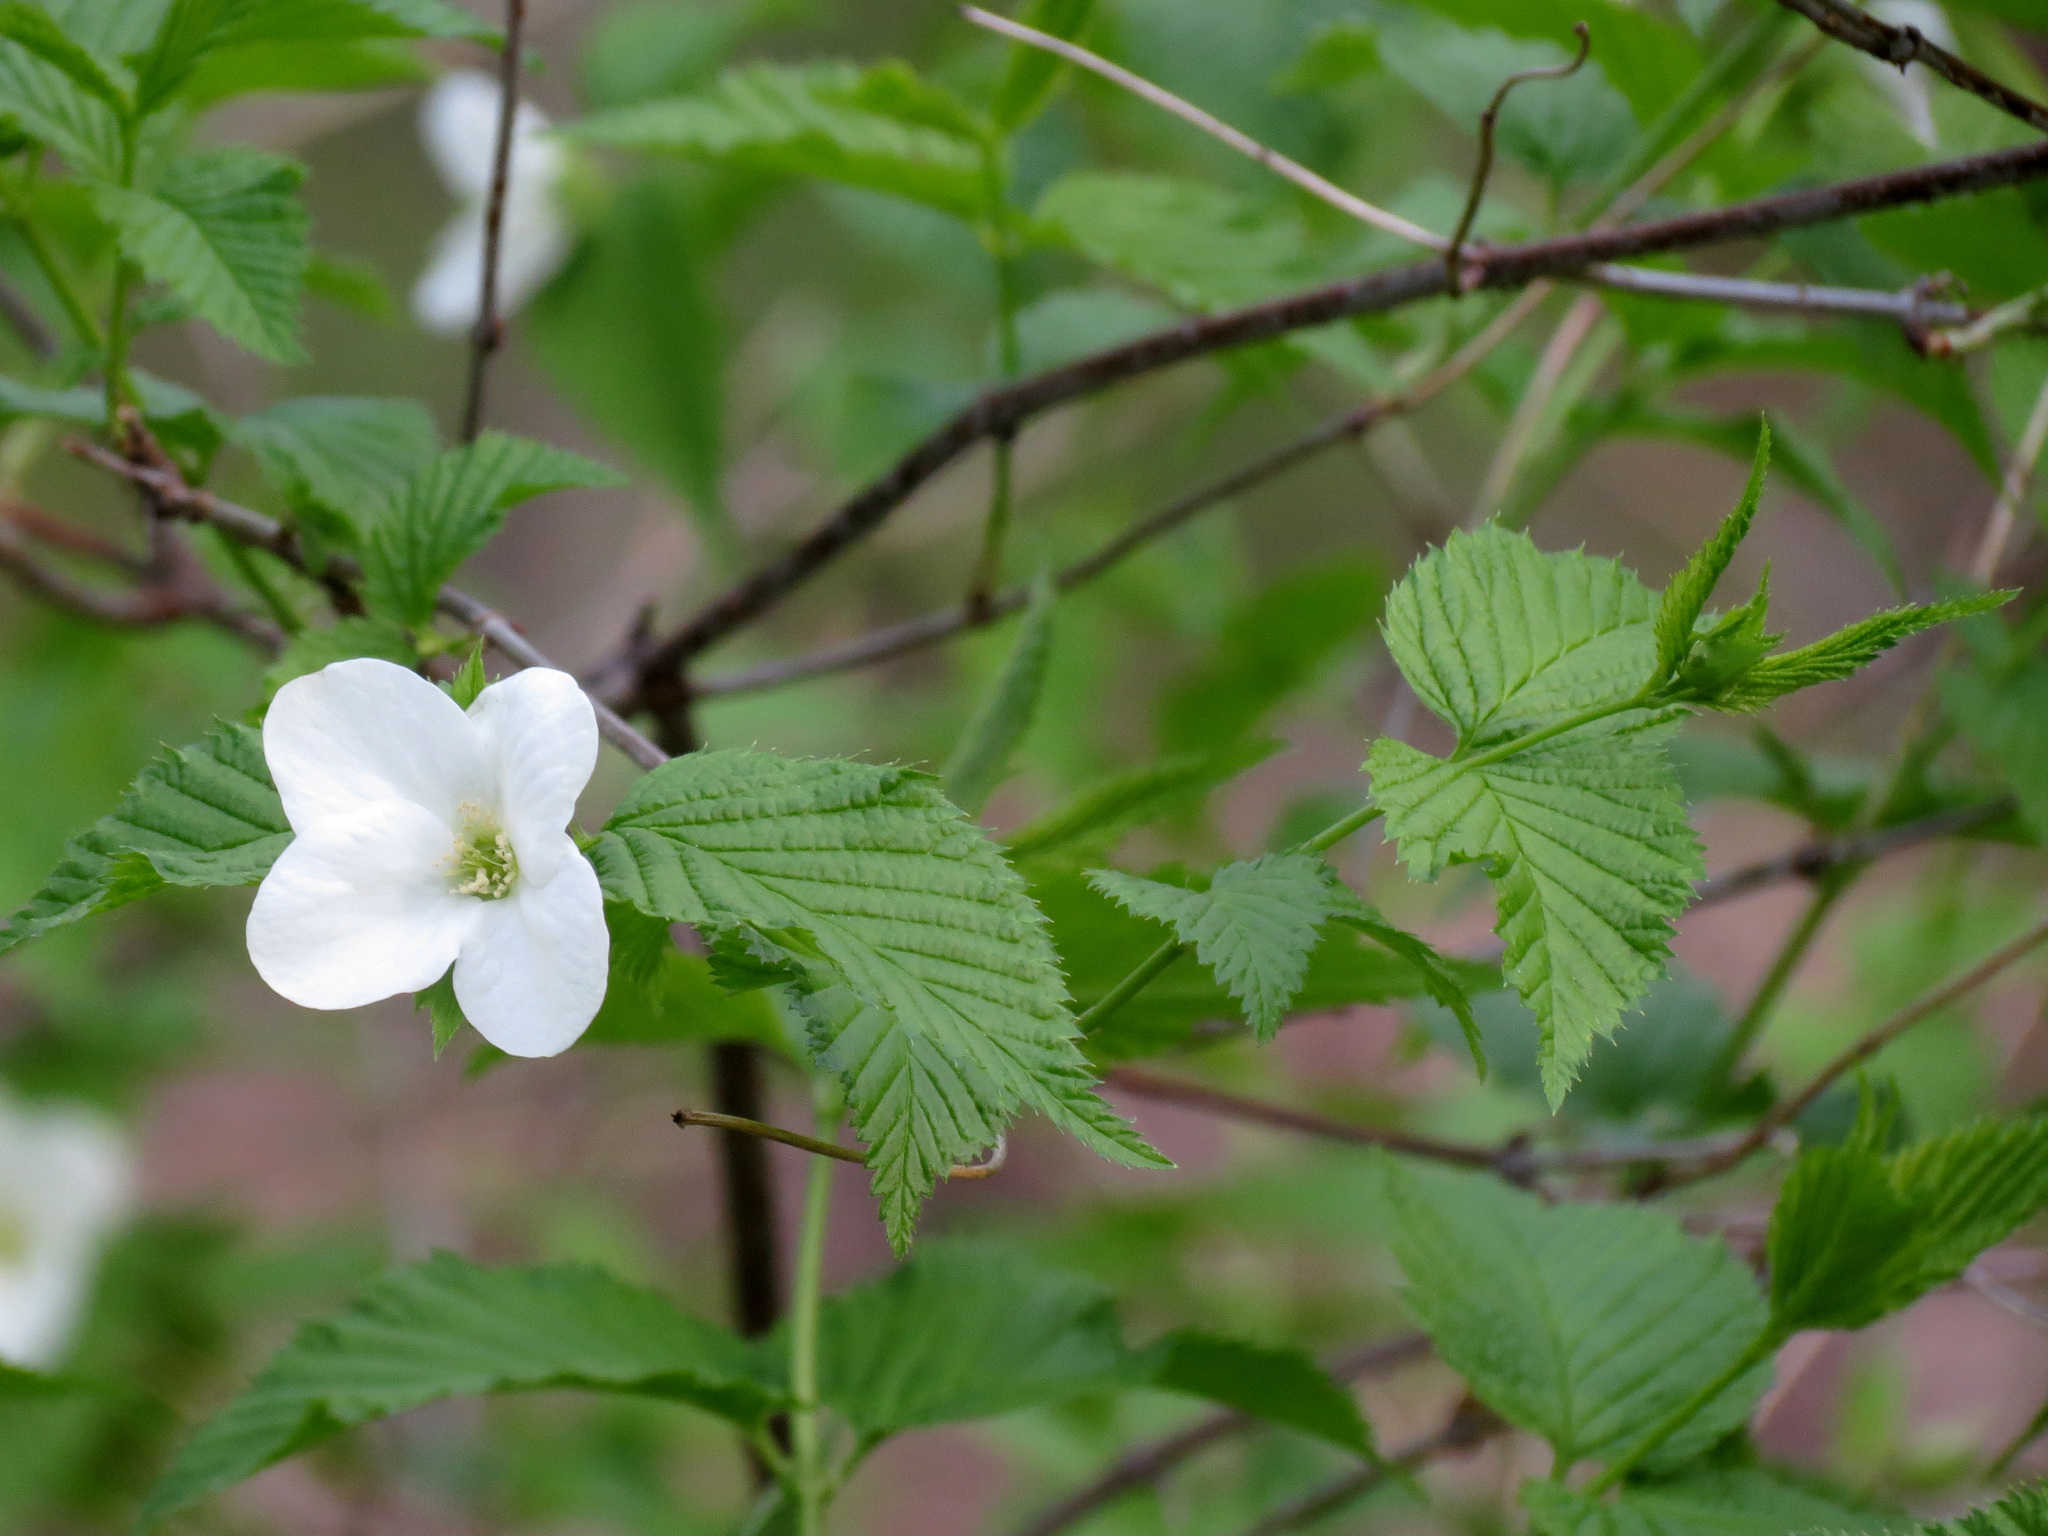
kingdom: Plantae
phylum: Tracheophyta
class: Magnoliopsida
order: Rosales
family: Rosaceae
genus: Rhodotypos
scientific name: Rhodotypos scandens
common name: Jetbead
